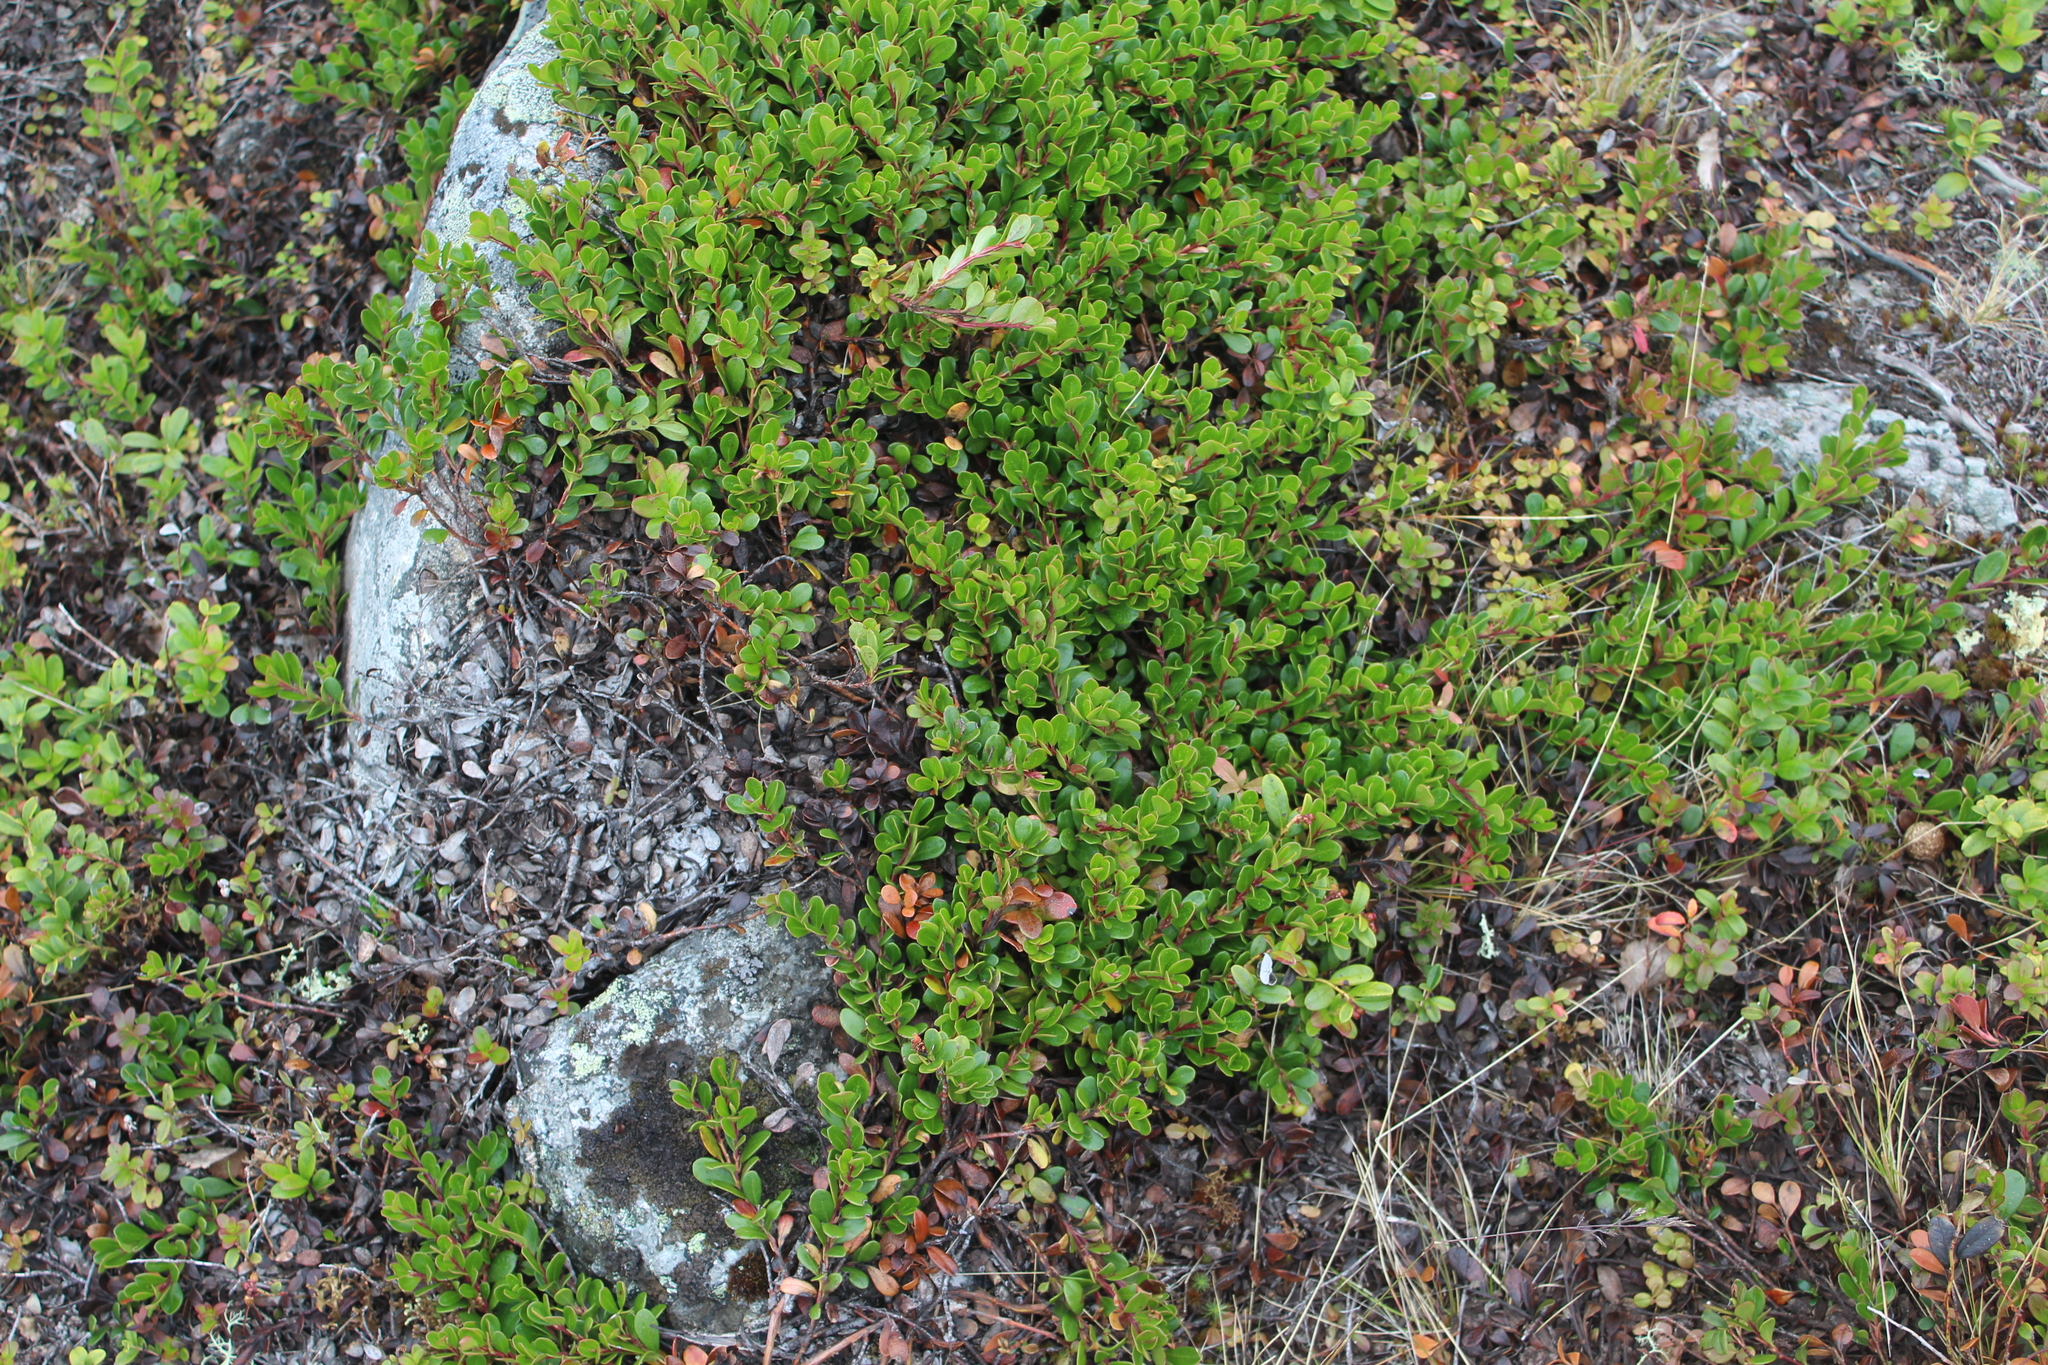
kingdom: Plantae
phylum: Tracheophyta
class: Magnoliopsida
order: Ericales
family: Ericaceae
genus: Arctostaphylos
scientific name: Arctostaphylos uva-ursi
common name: Bearberry
